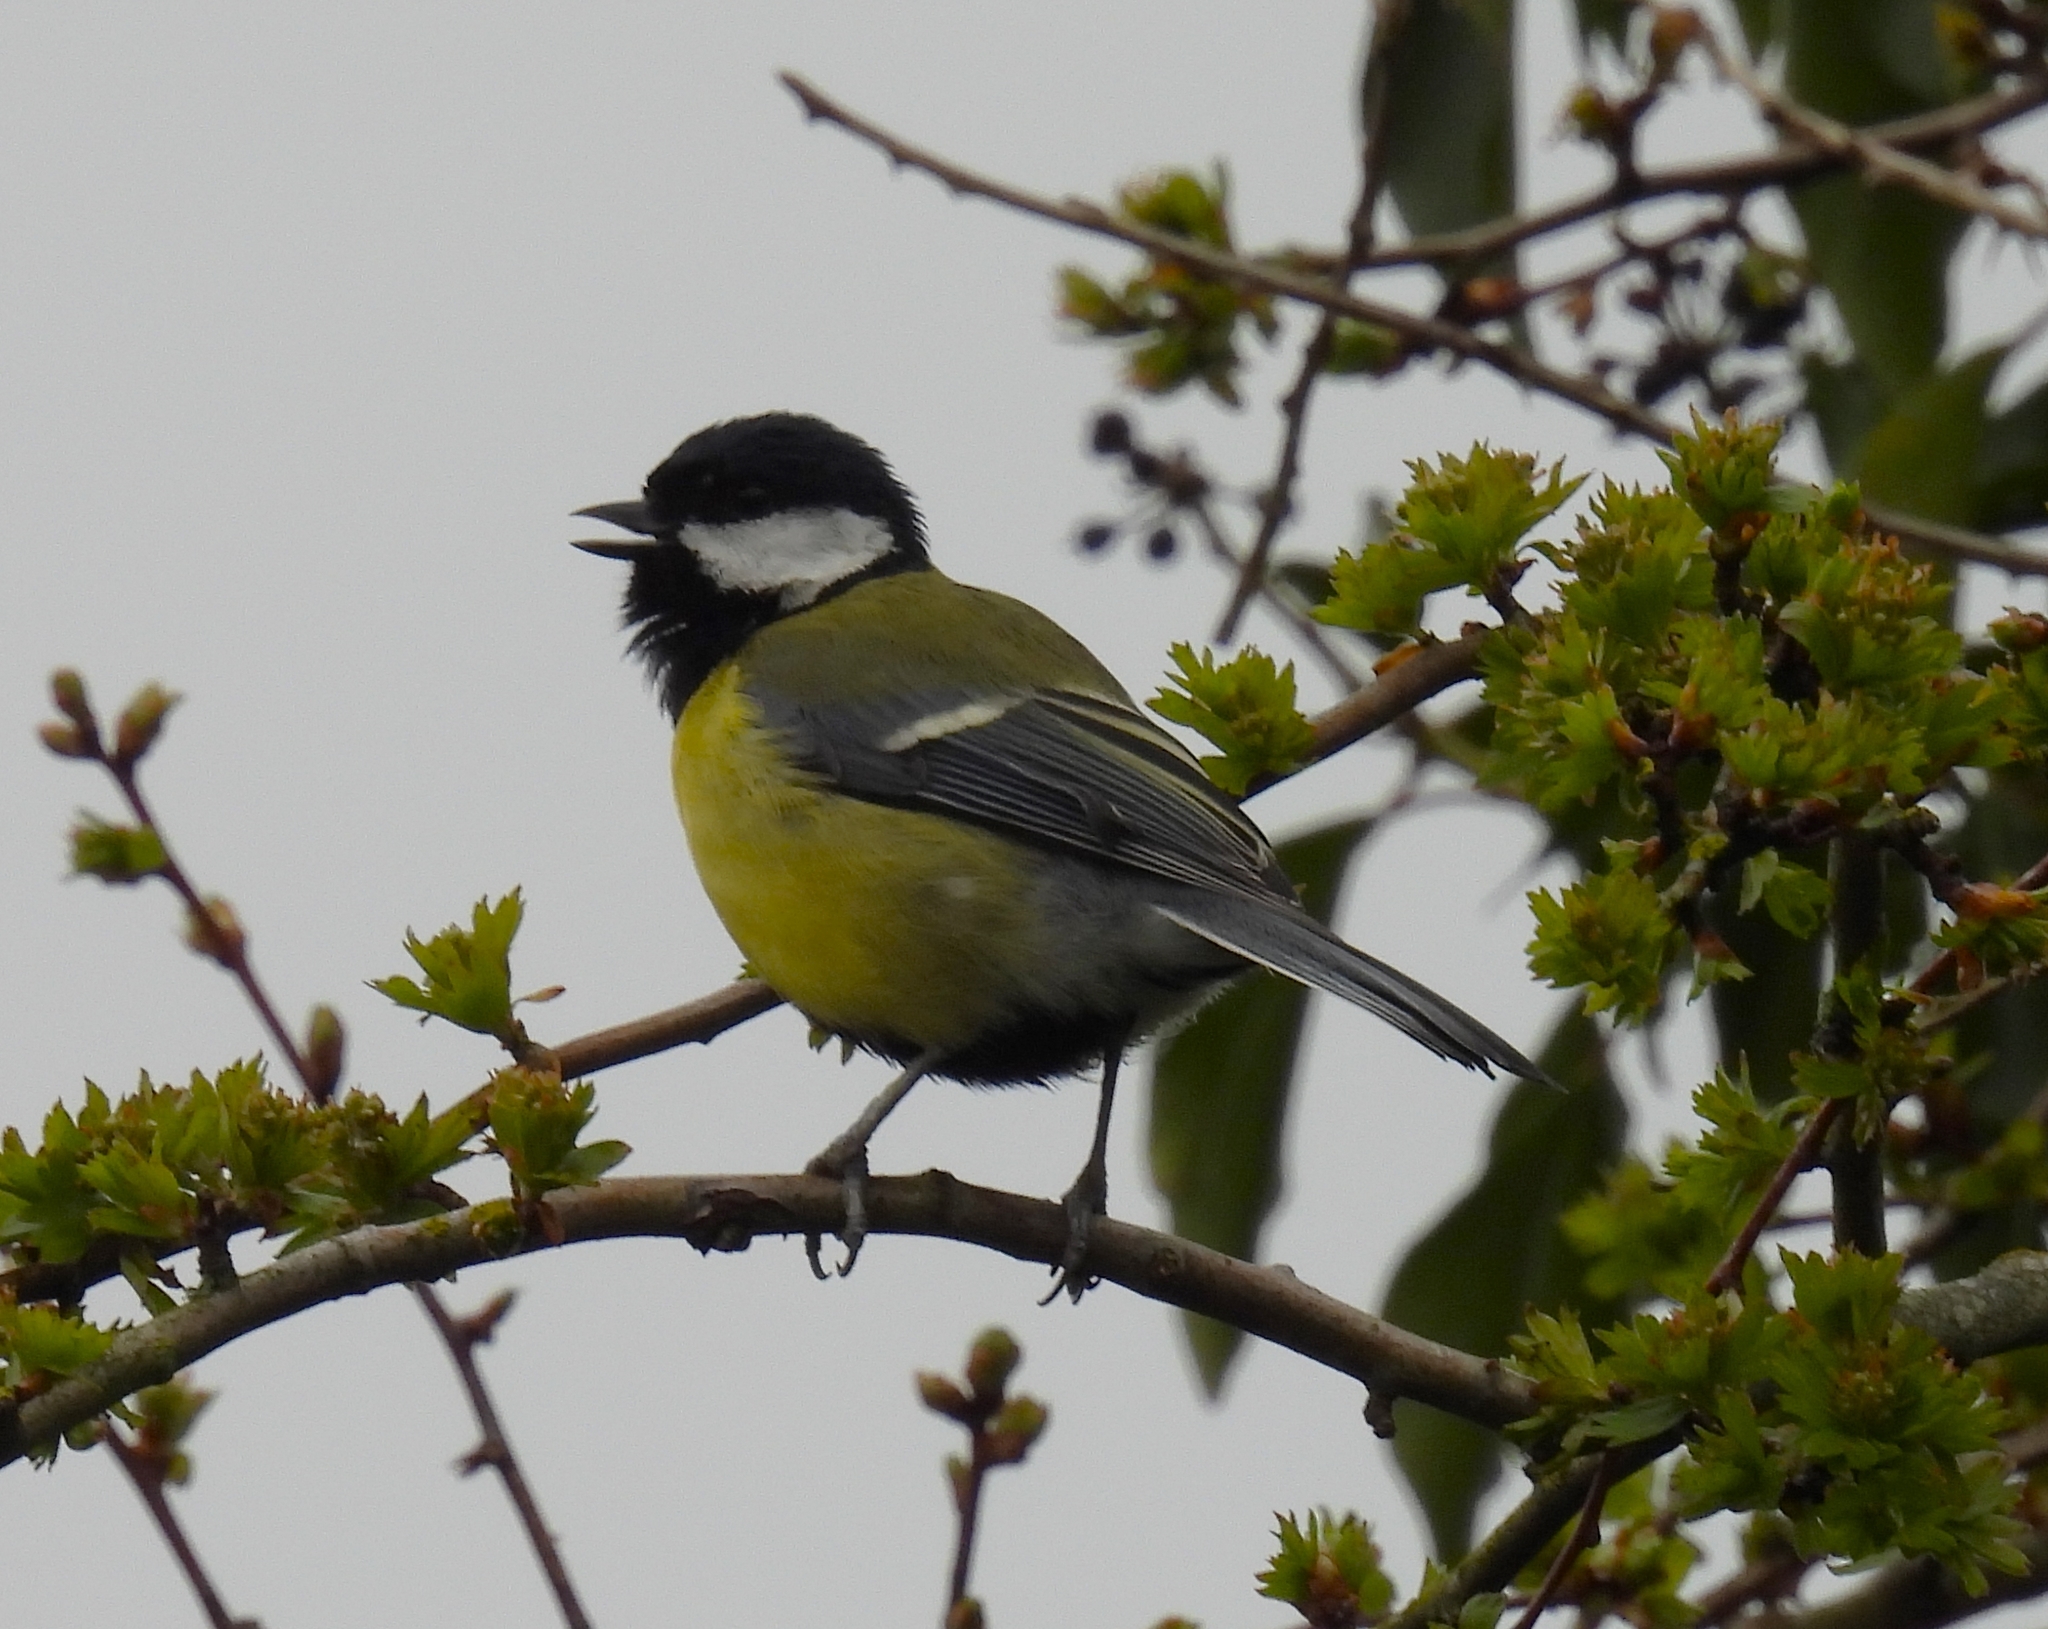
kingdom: Animalia
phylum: Chordata
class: Aves
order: Passeriformes
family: Paridae
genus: Parus
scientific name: Parus major
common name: Great tit
